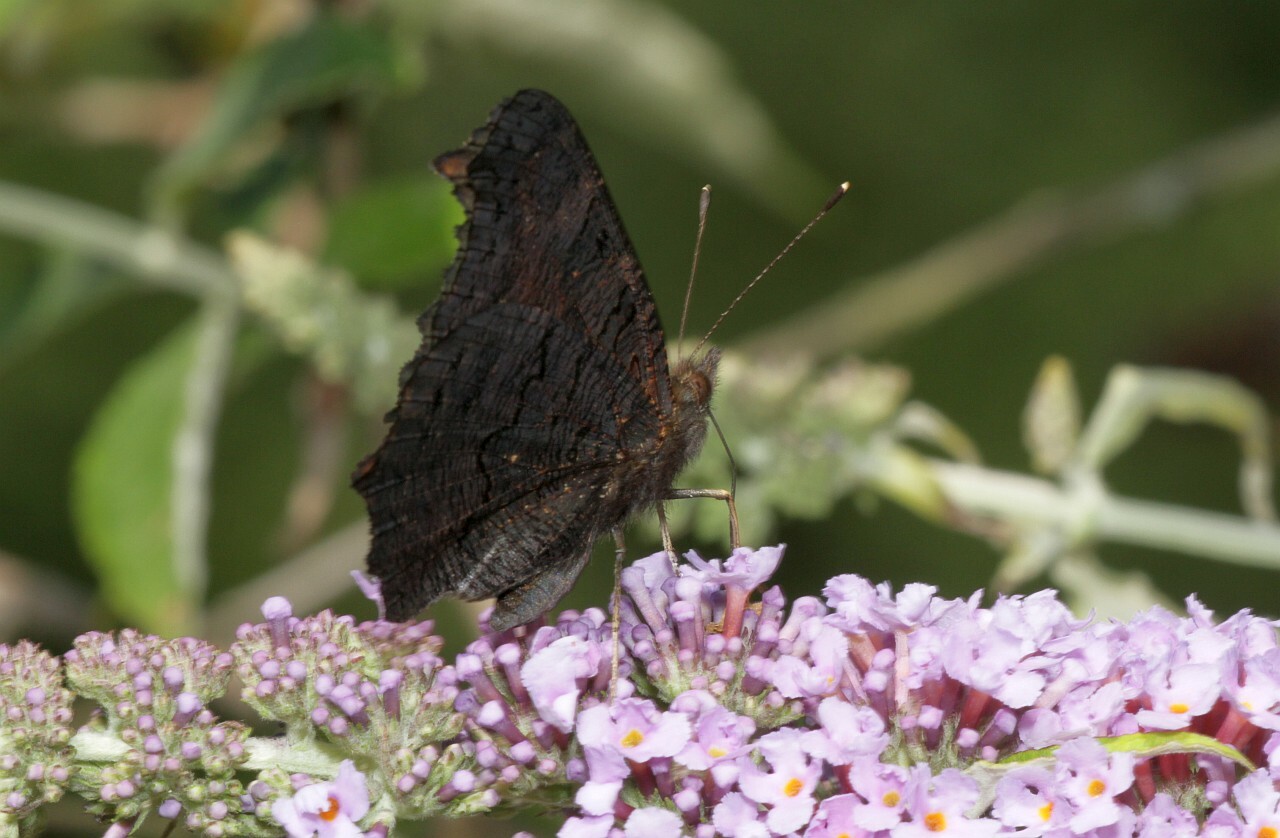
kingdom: Animalia
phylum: Arthropoda
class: Insecta
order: Lepidoptera
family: Nymphalidae
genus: Aglais
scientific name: Aglais io
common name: Peacock
